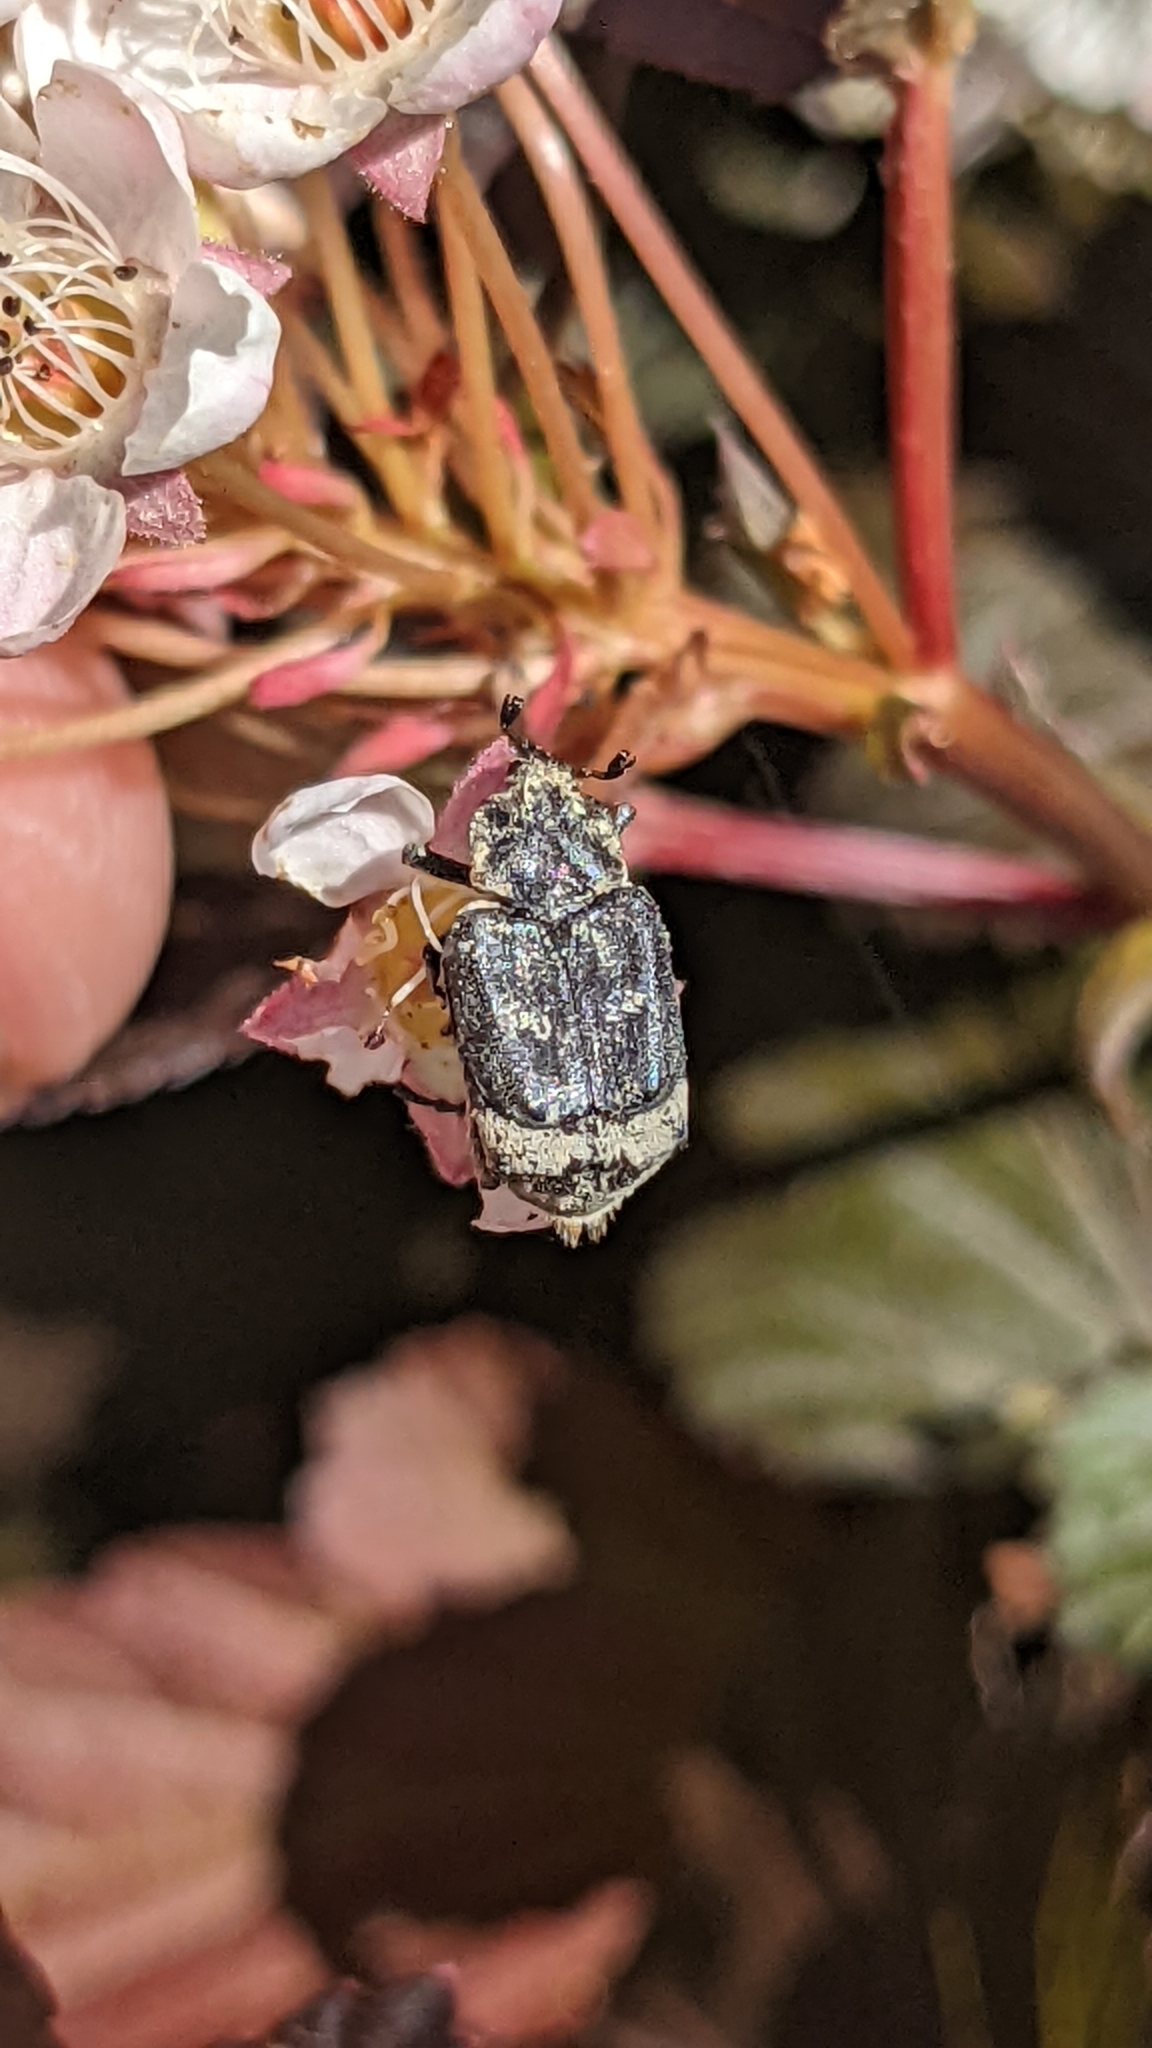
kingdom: Animalia
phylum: Arthropoda
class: Insecta
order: Coleoptera
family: Scarabaeidae
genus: Valgus
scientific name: Valgus hemipterus
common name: Bug flower chafer
